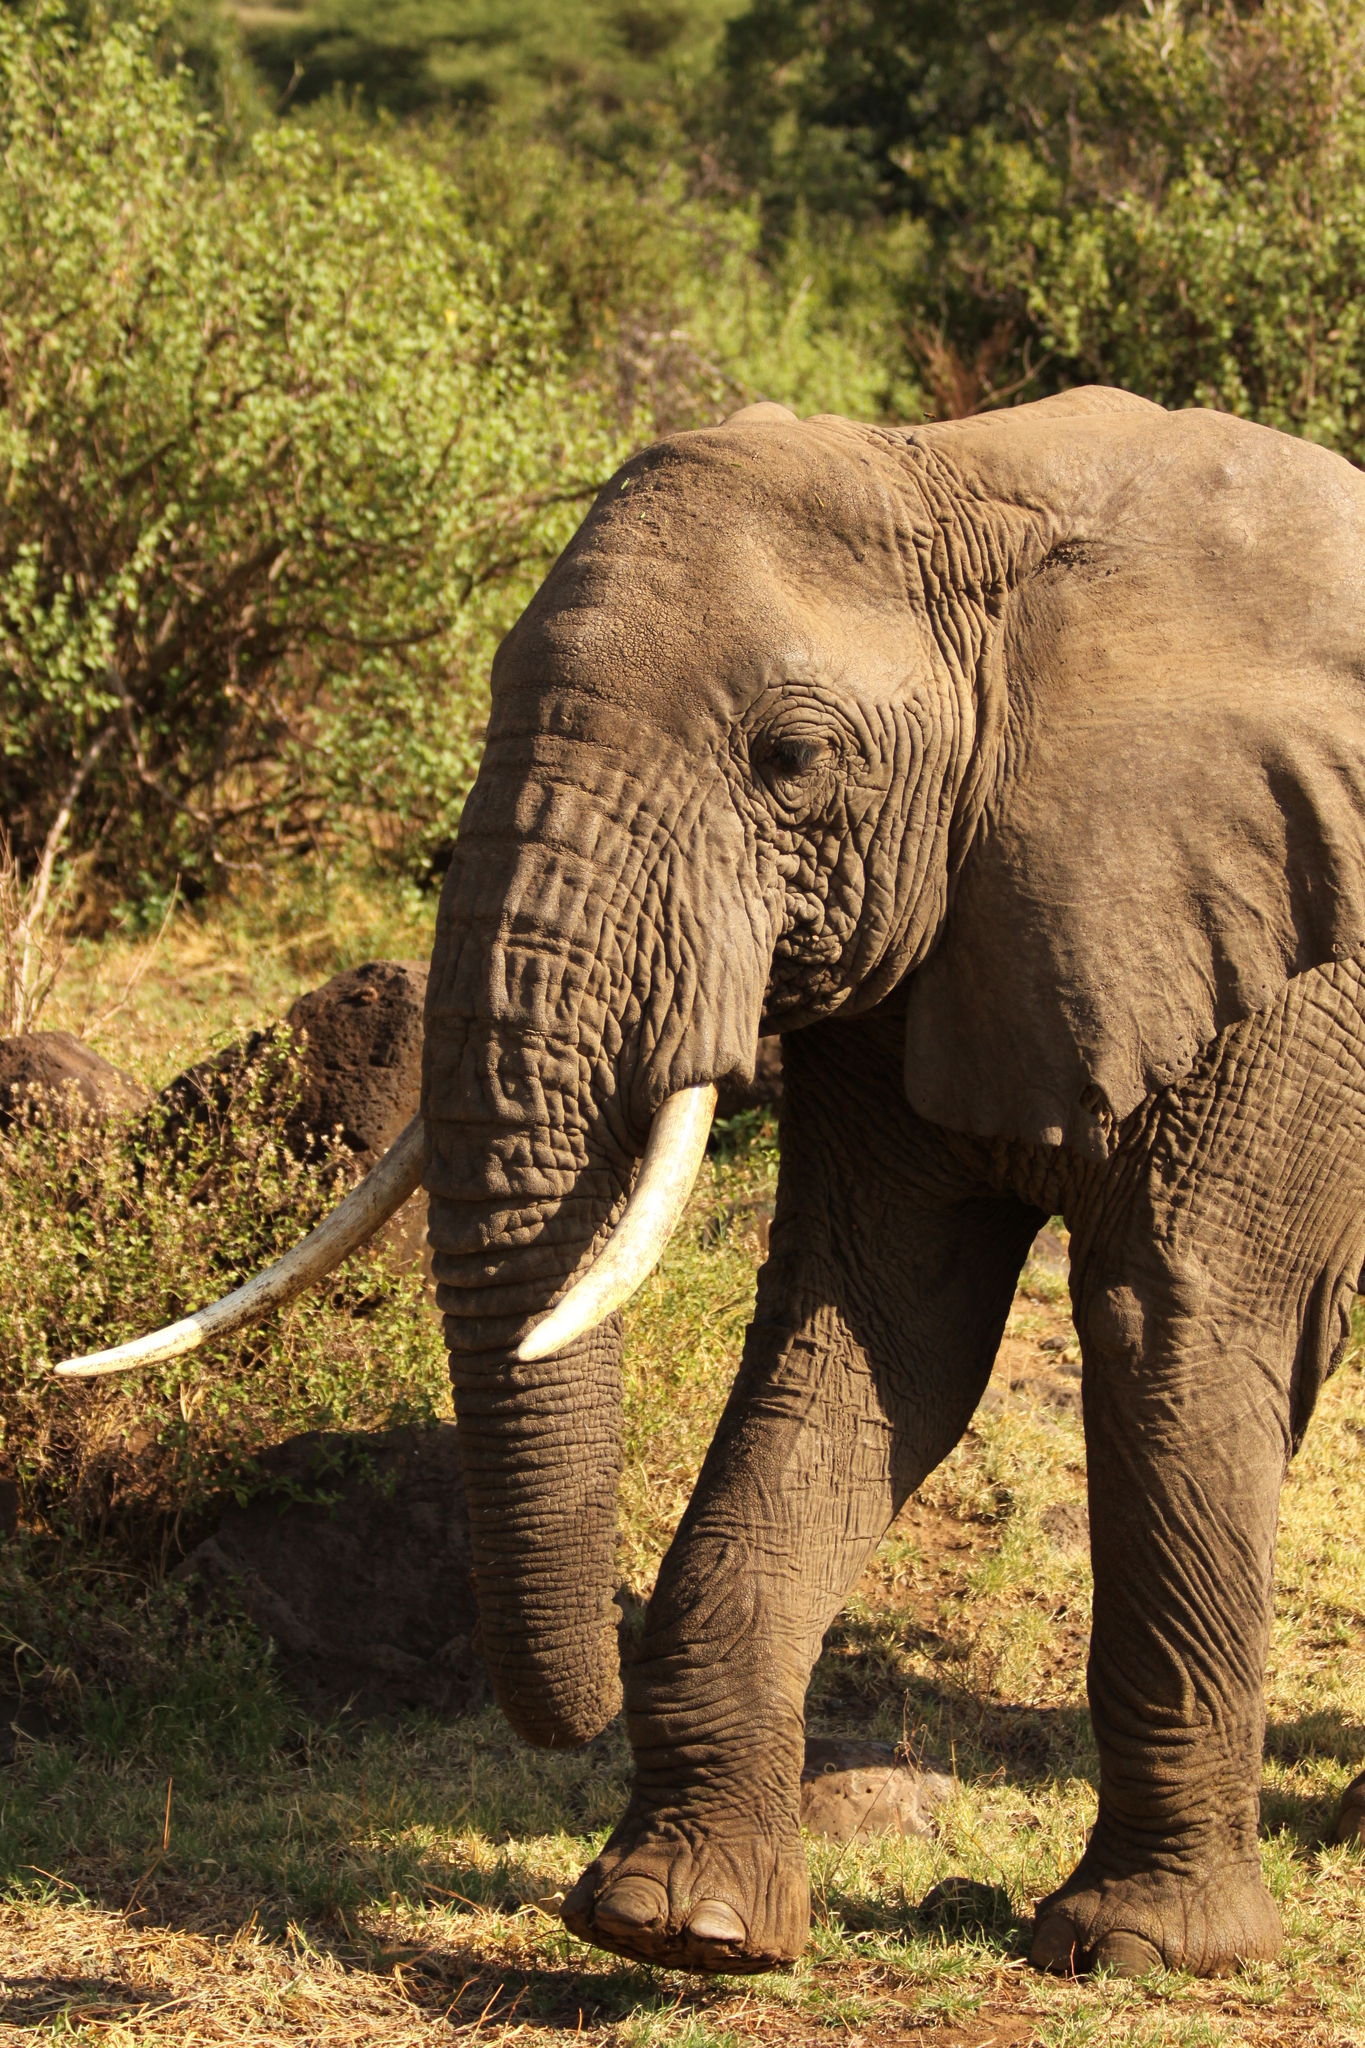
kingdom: Animalia
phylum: Chordata
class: Mammalia
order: Proboscidea
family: Elephantidae
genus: Loxodonta
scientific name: Loxodonta africana
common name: African elephant
